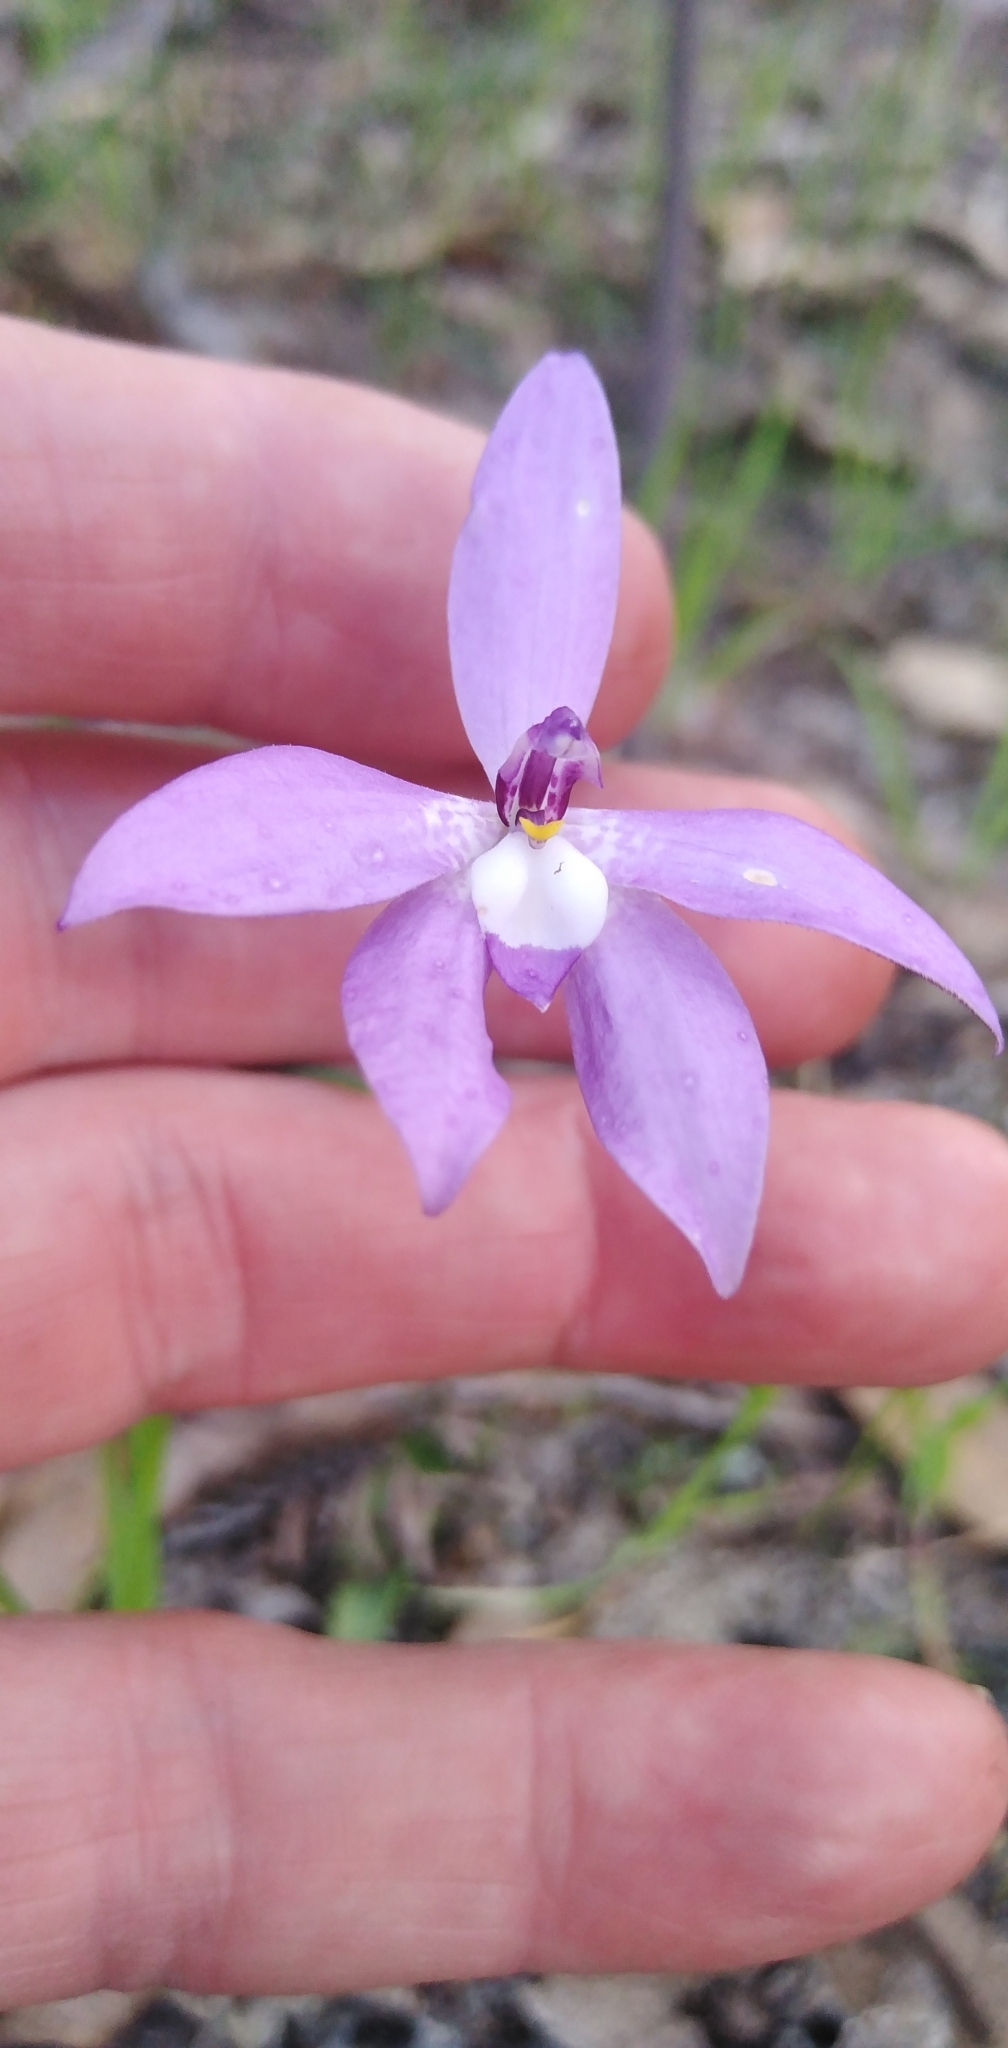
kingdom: Plantae
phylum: Tracheophyta
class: Liliopsida
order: Asparagales
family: Orchidaceae
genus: Caladenia
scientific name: Caladenia major
